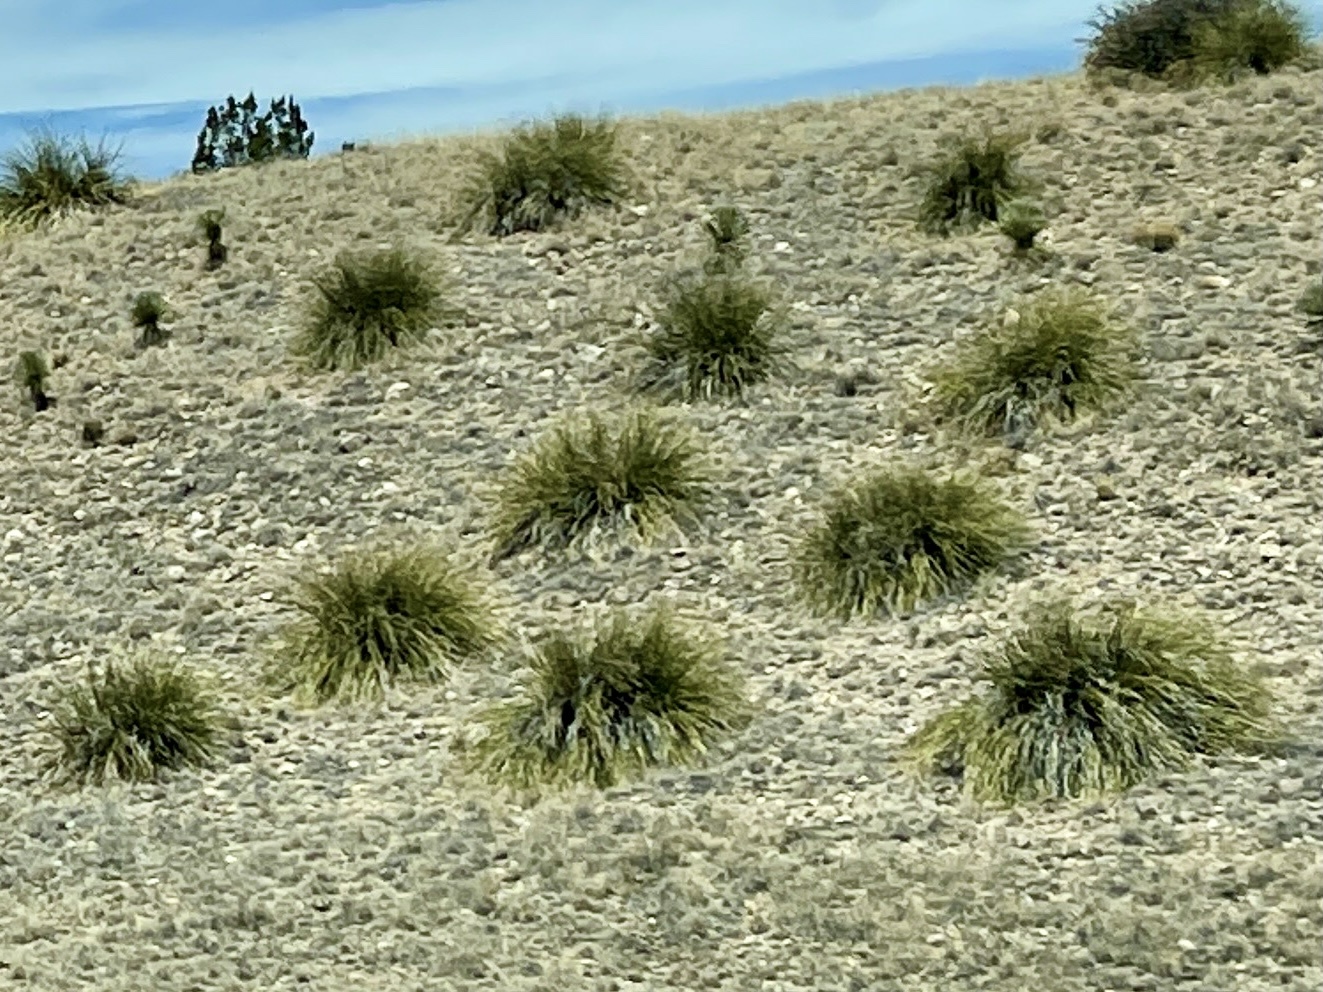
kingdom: Plantae
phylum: Tracheophyta
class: Liliopsida
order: Asparagales
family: Asparagaceae
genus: Nolina
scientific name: Nolina microcarpa
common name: Bear-grass
